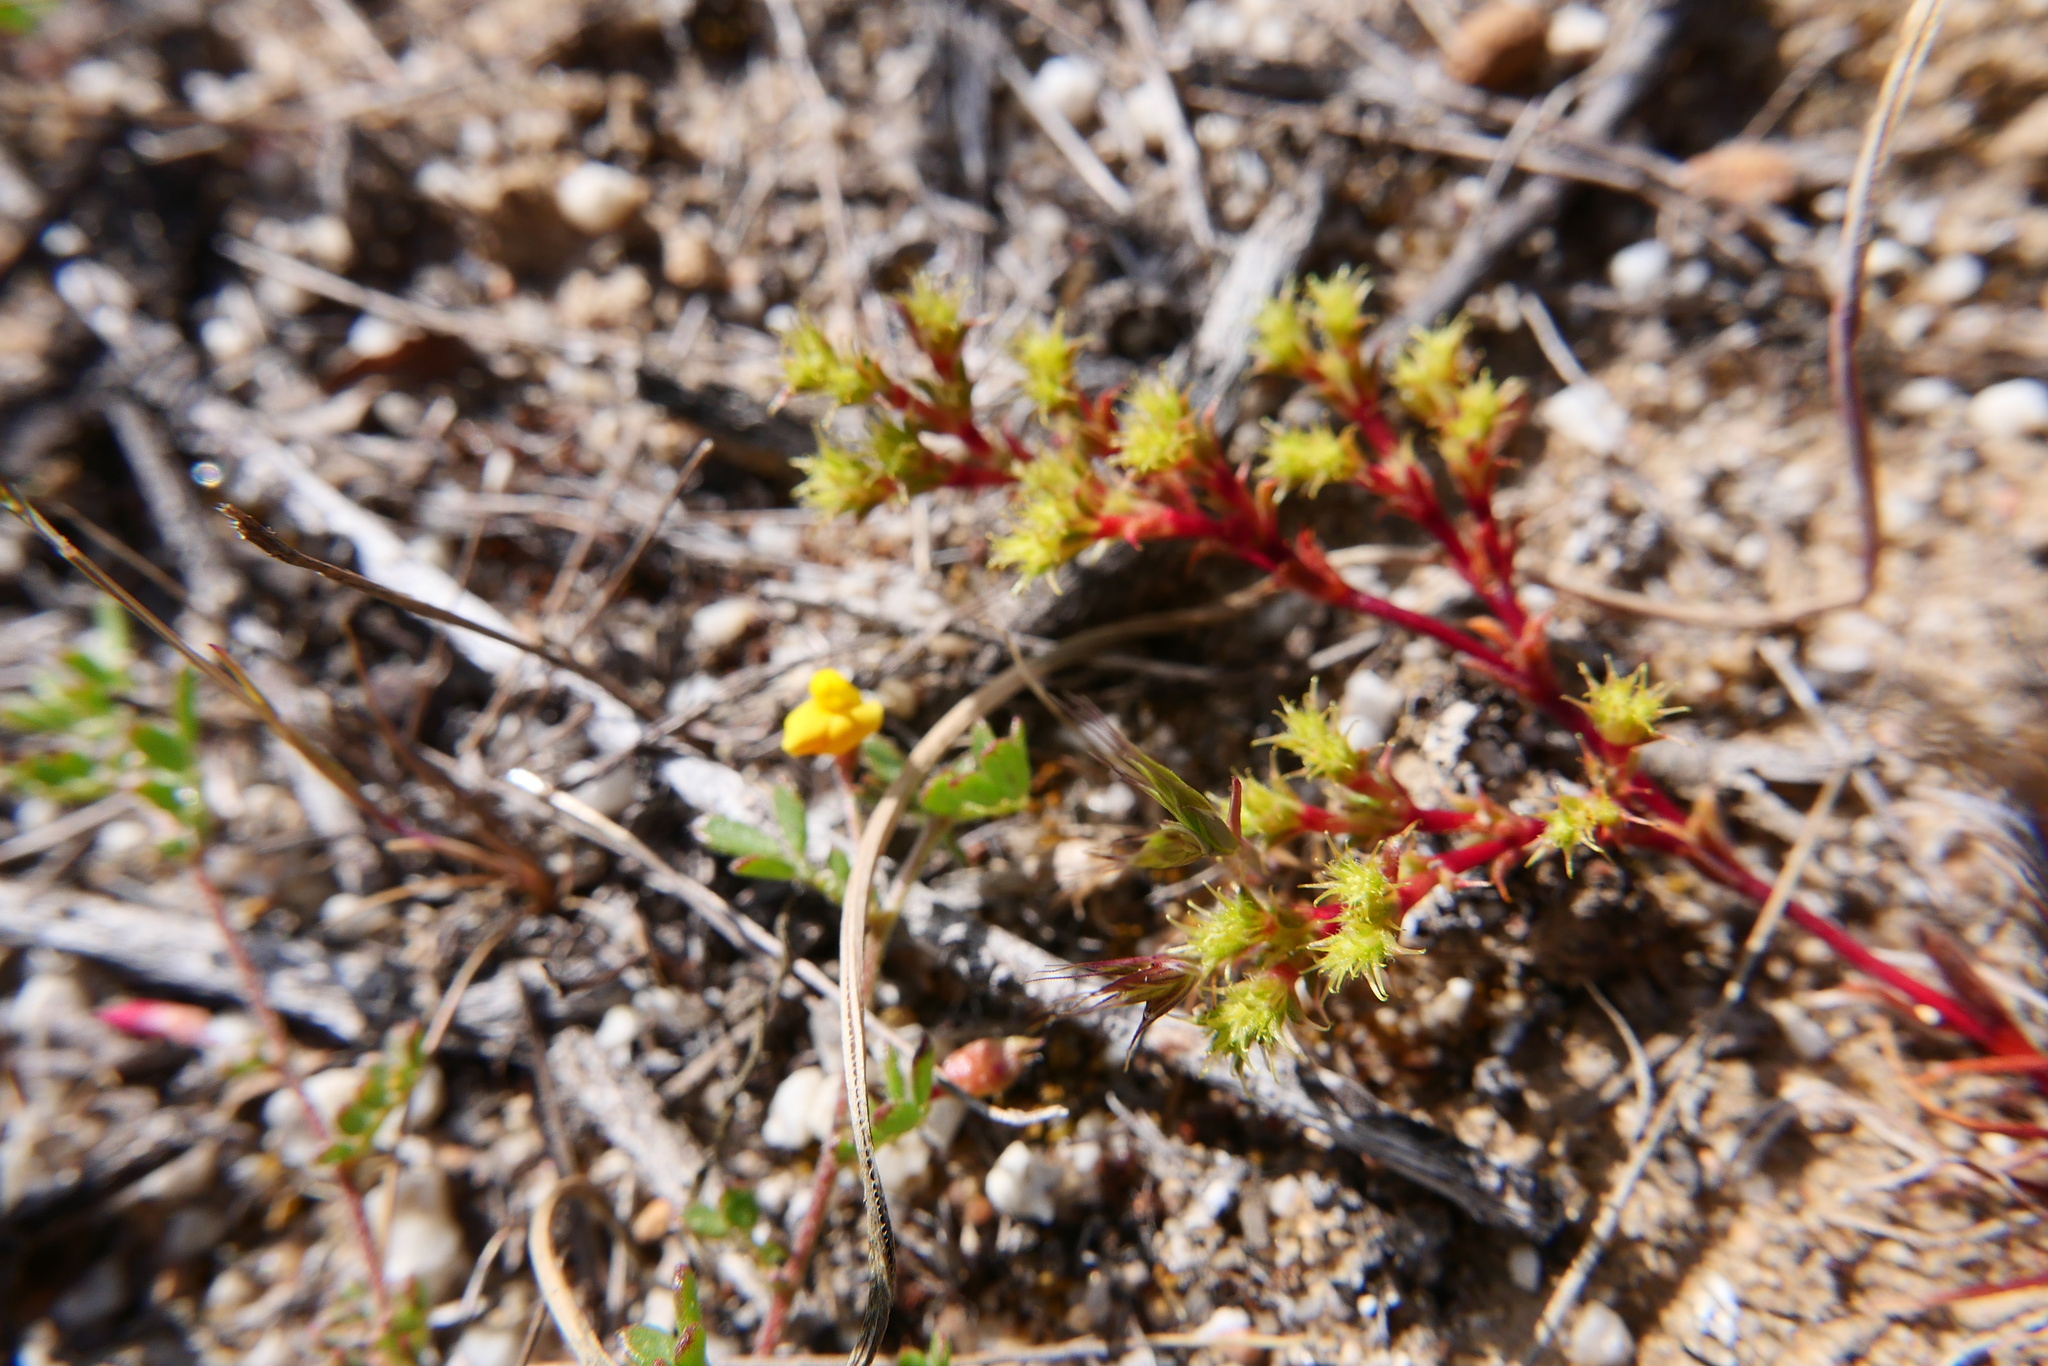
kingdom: Plantae
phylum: Tracheophyta
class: Magnoliopsida
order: Caryophyllales
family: Polygonaceae
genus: Lastarriaea
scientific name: Lastarriaea coriacea
